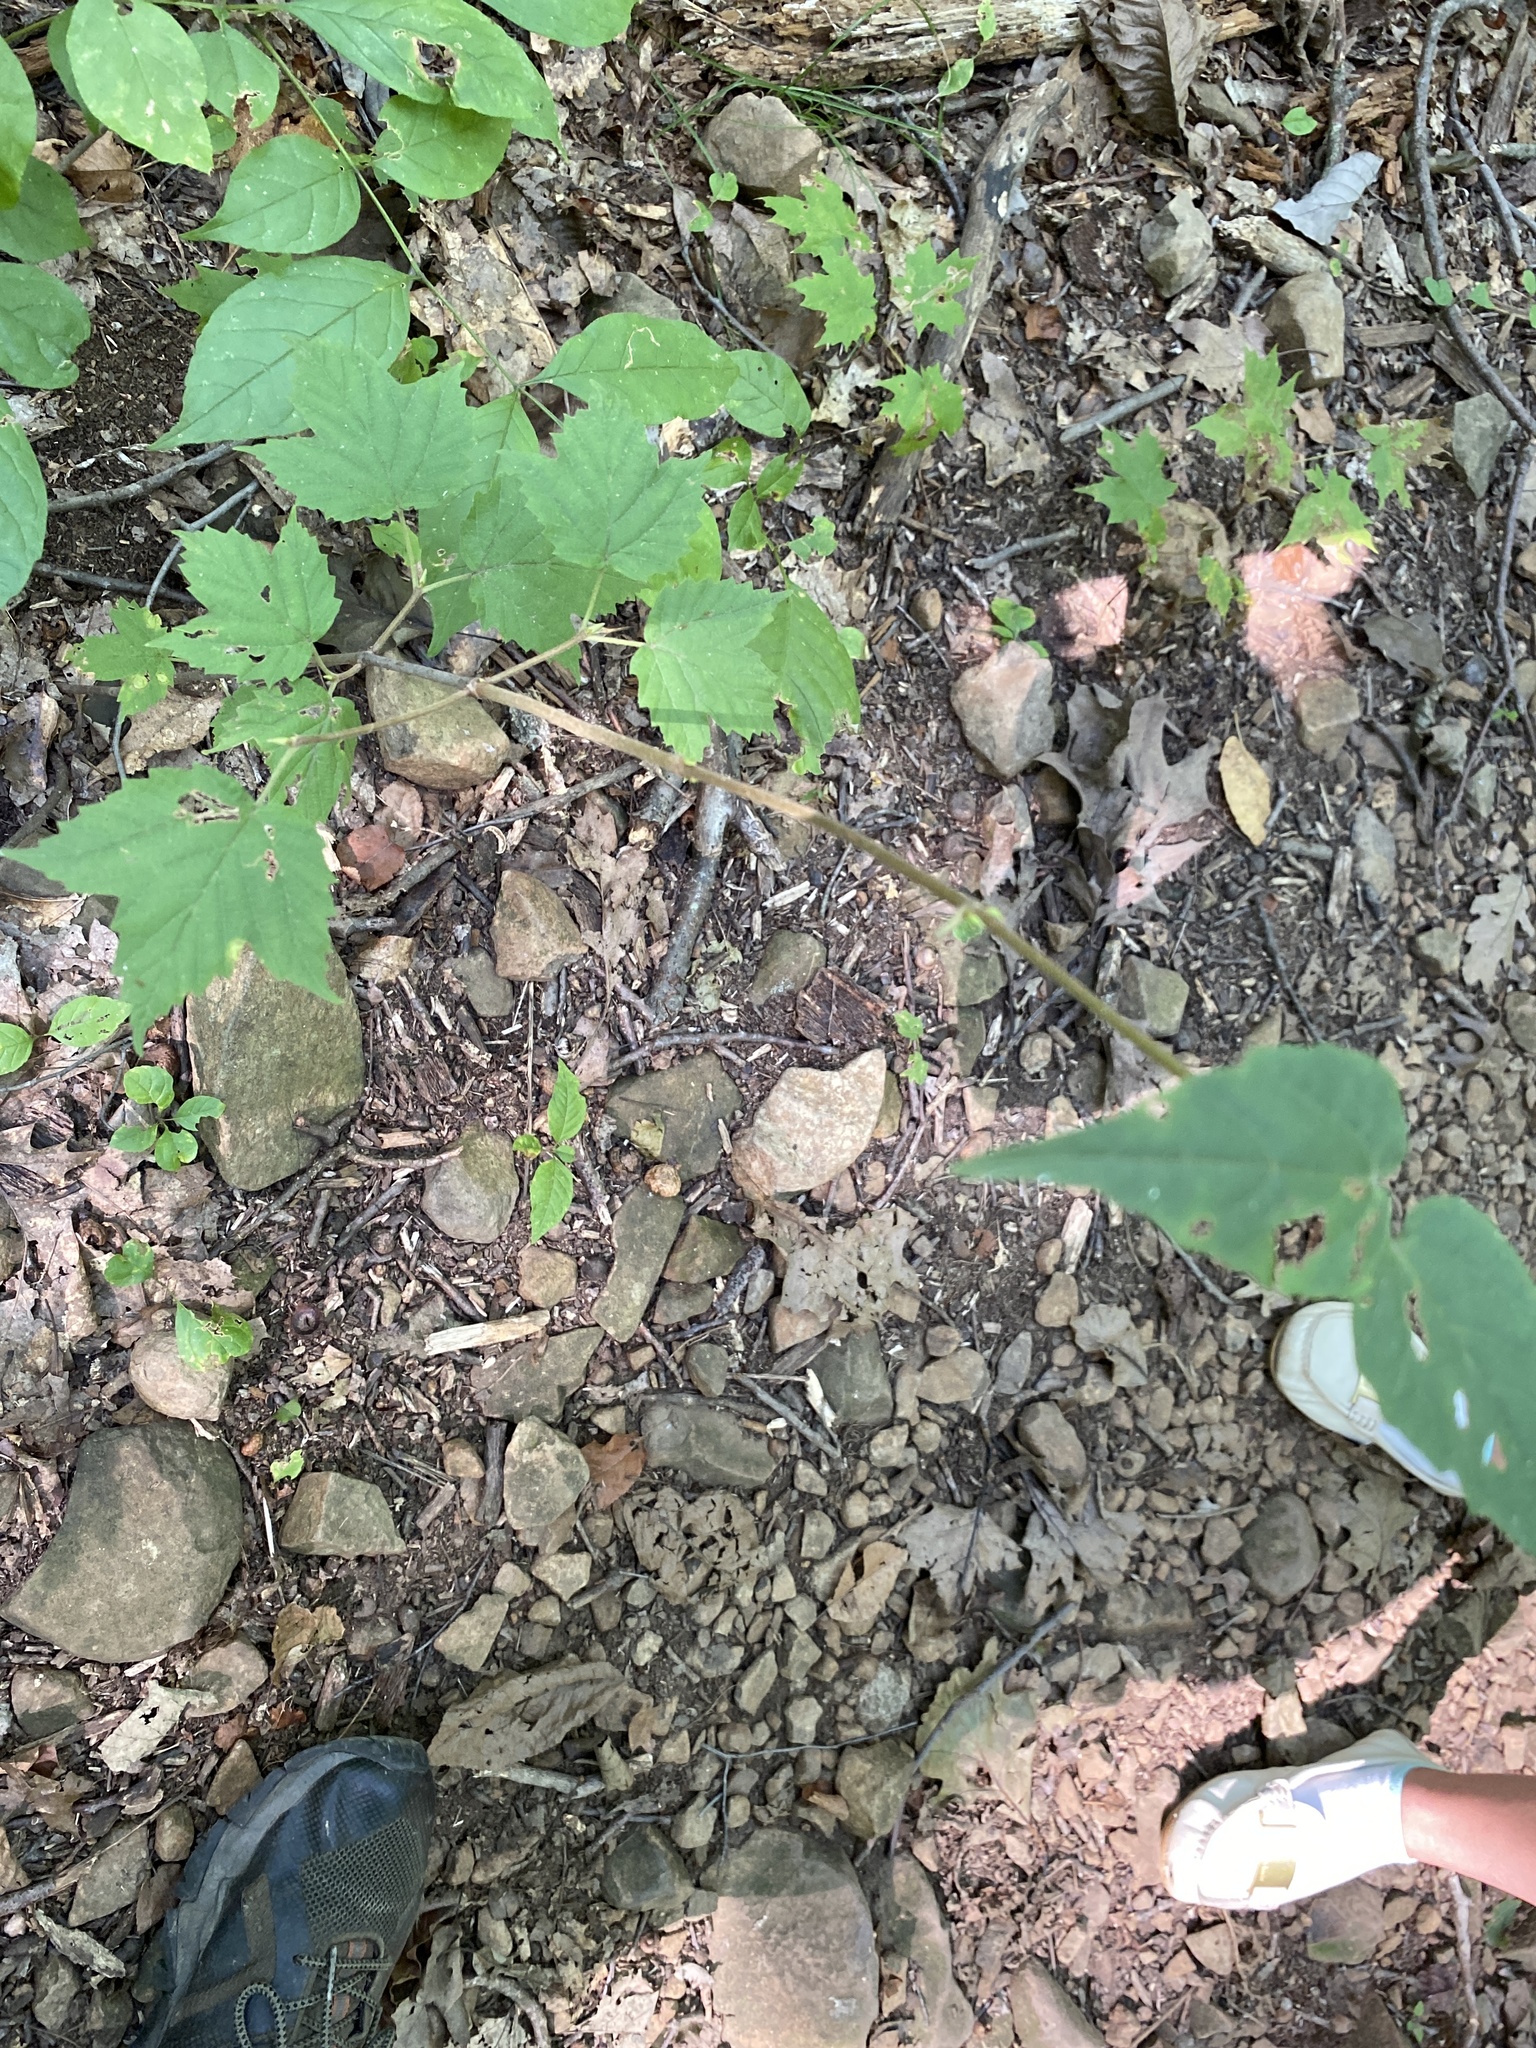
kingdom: Plantae
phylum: Tracheophyta
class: Magnoliopsida
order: Dipsacales
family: Viburnaceae
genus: Viburnum
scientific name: Viburnum acerifolium
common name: Dockmackie
